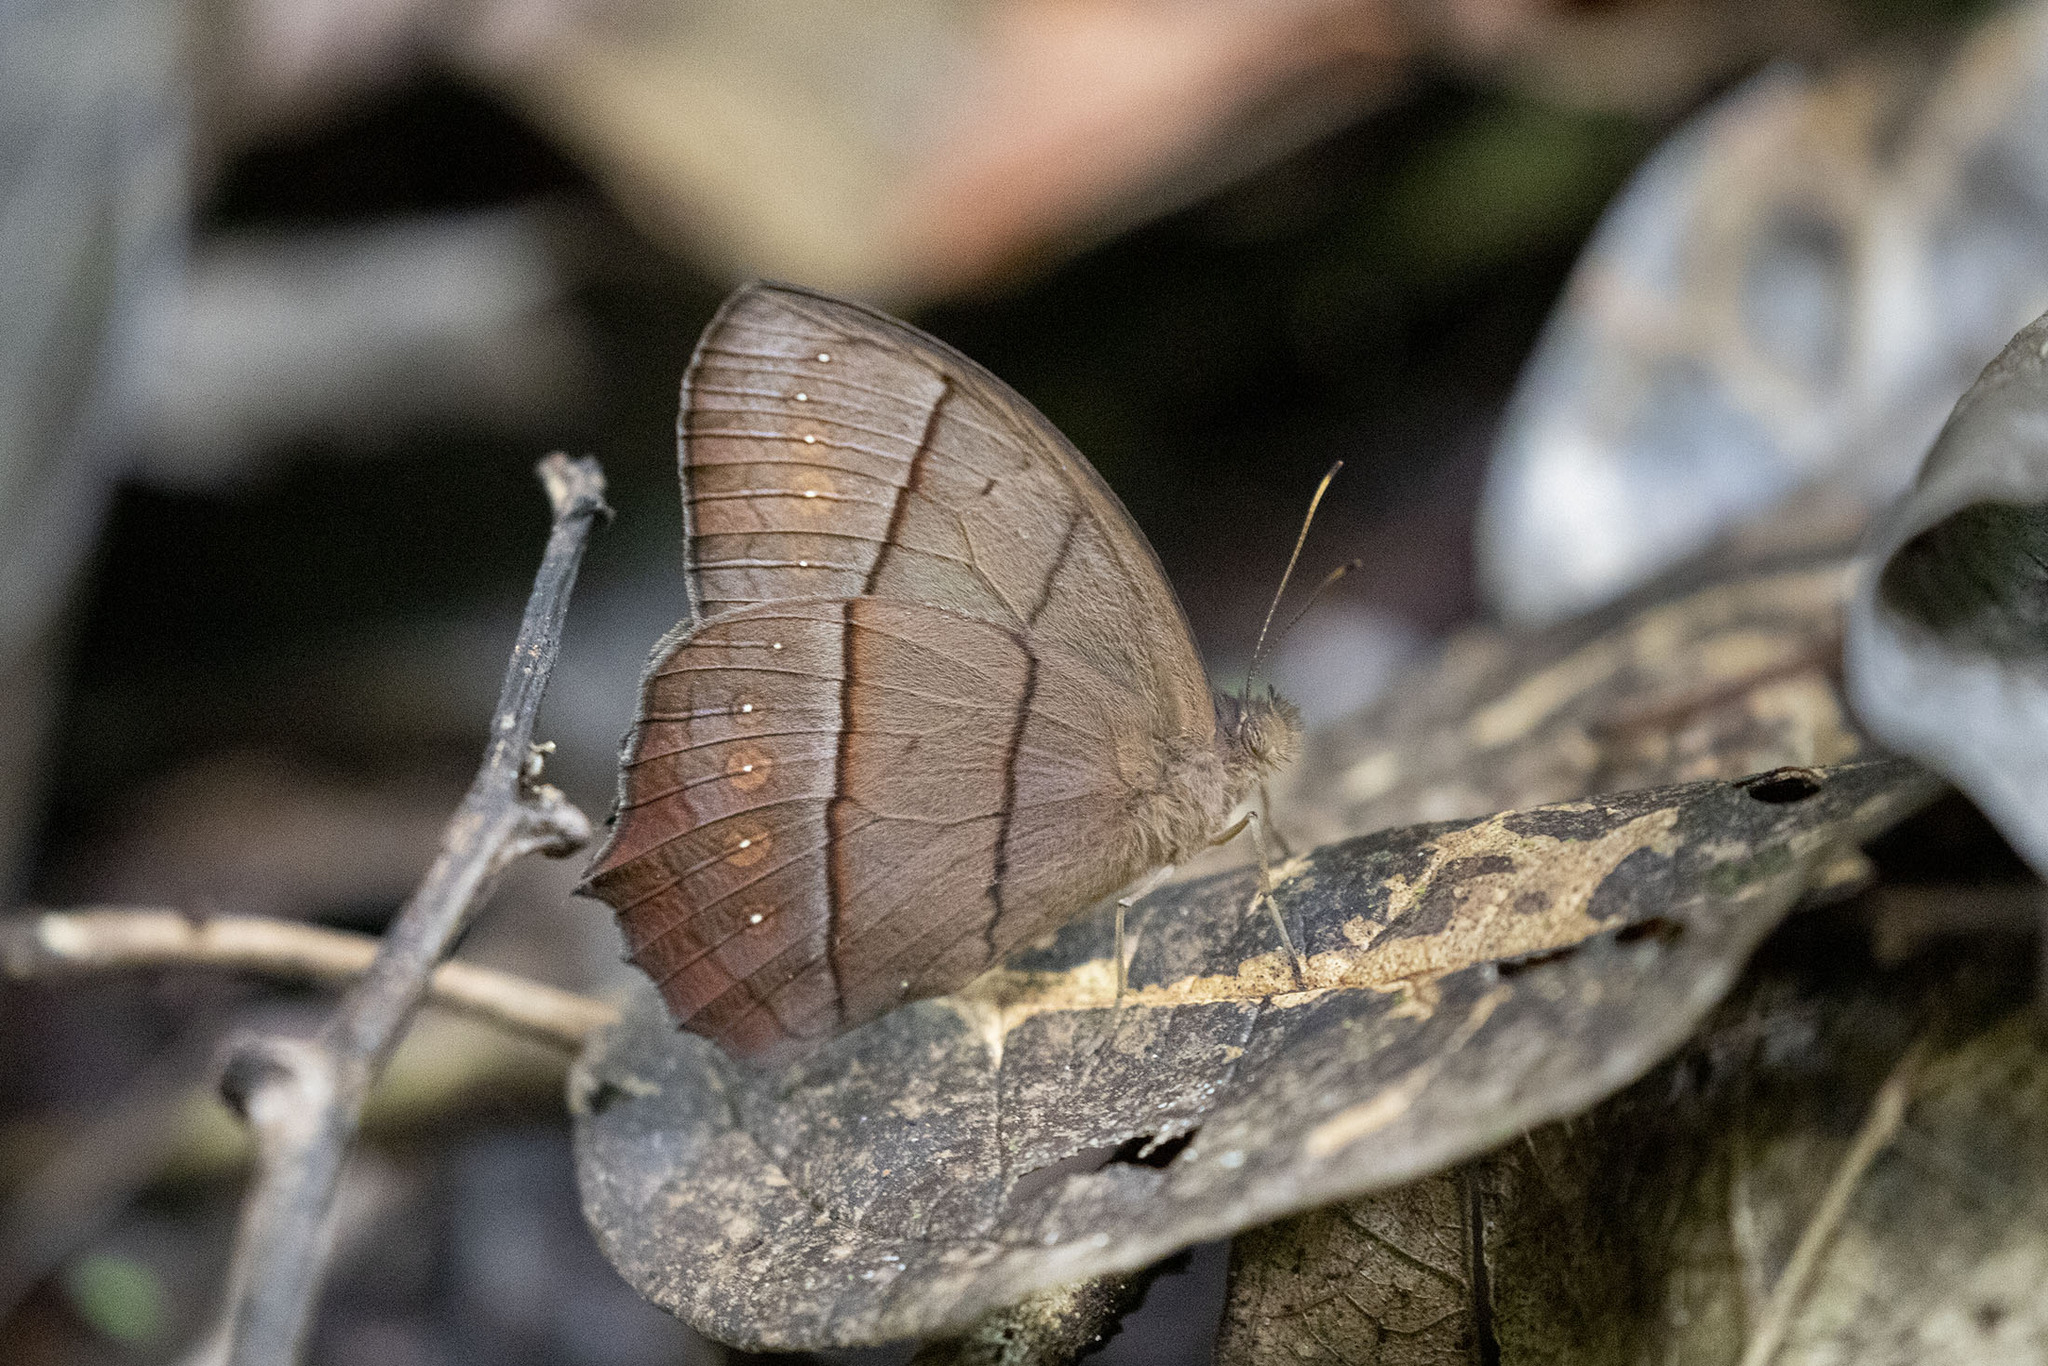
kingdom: Animalia
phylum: Arthropoda
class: Insecta
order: Lepidoptera
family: Nymphalidae
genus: Taygetis
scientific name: Taygetis virgilia
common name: Stub-tailed satyr
